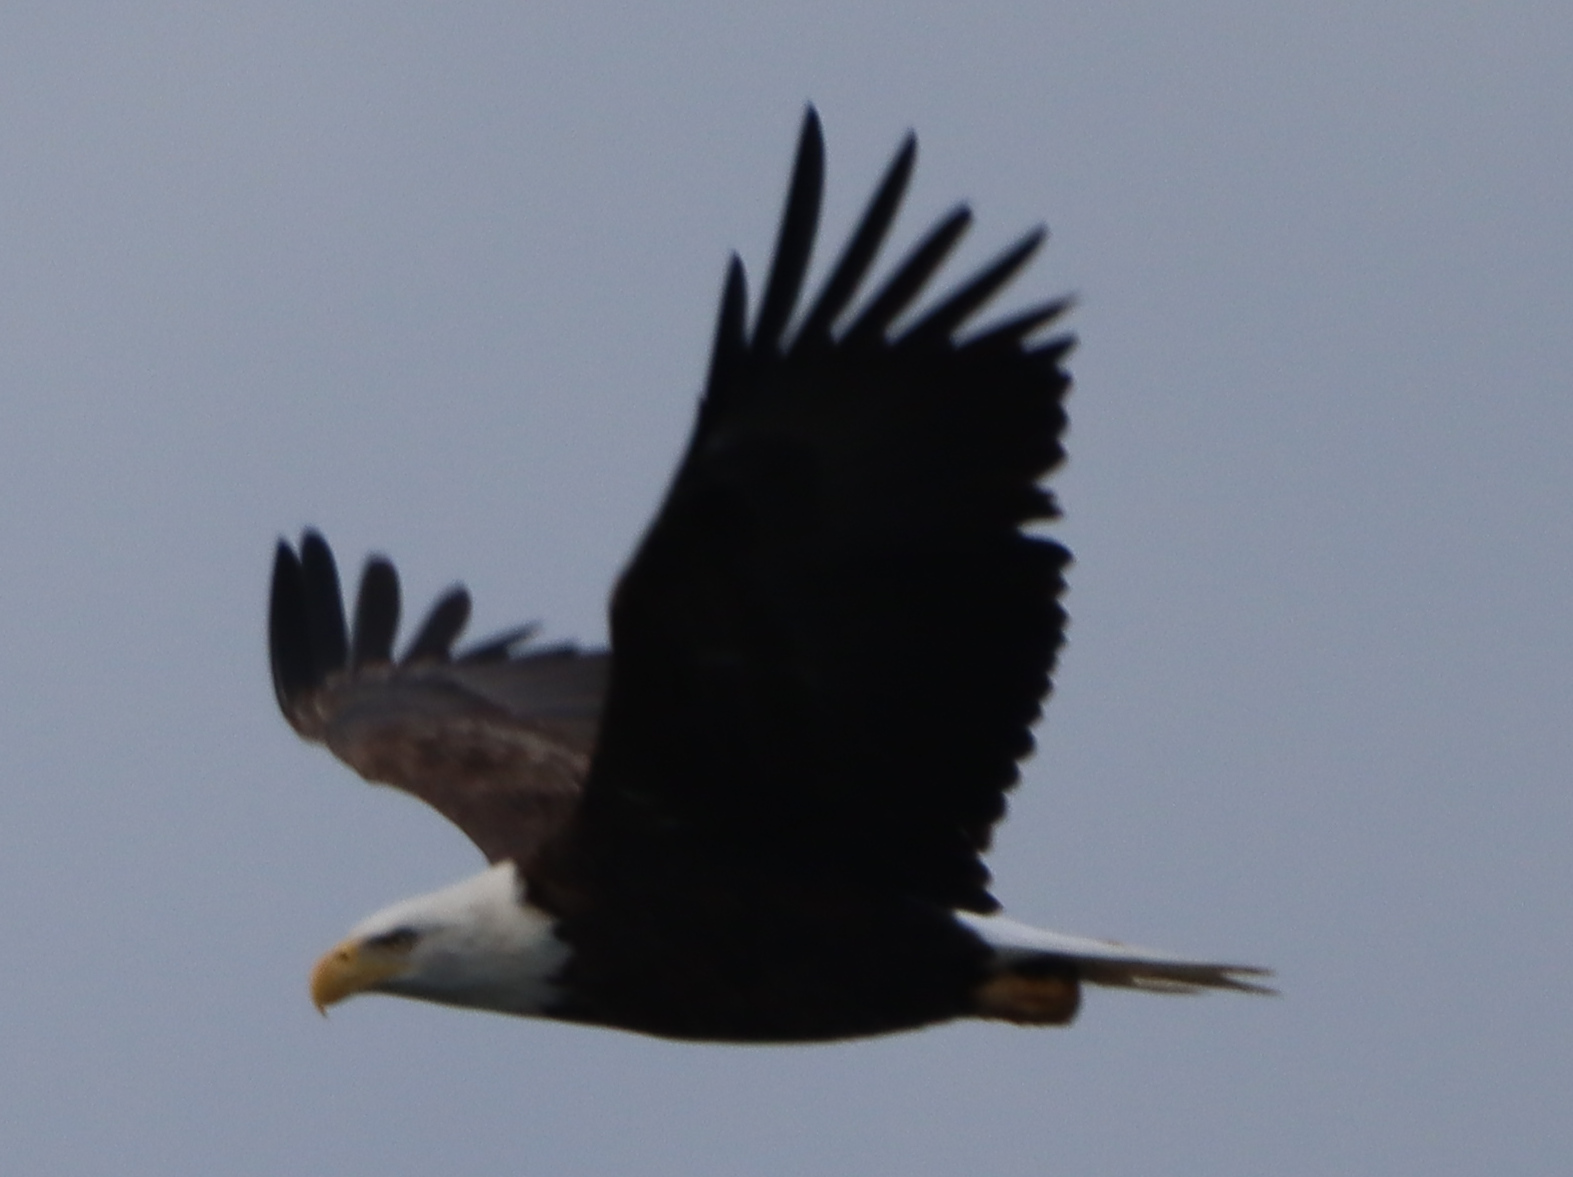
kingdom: Animalia
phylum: Chordata
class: Aves
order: Accipitriformes
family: Accipitridae
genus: Haliaeetus
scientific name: Haliaeetus leucocephalus
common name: Bald eagle
